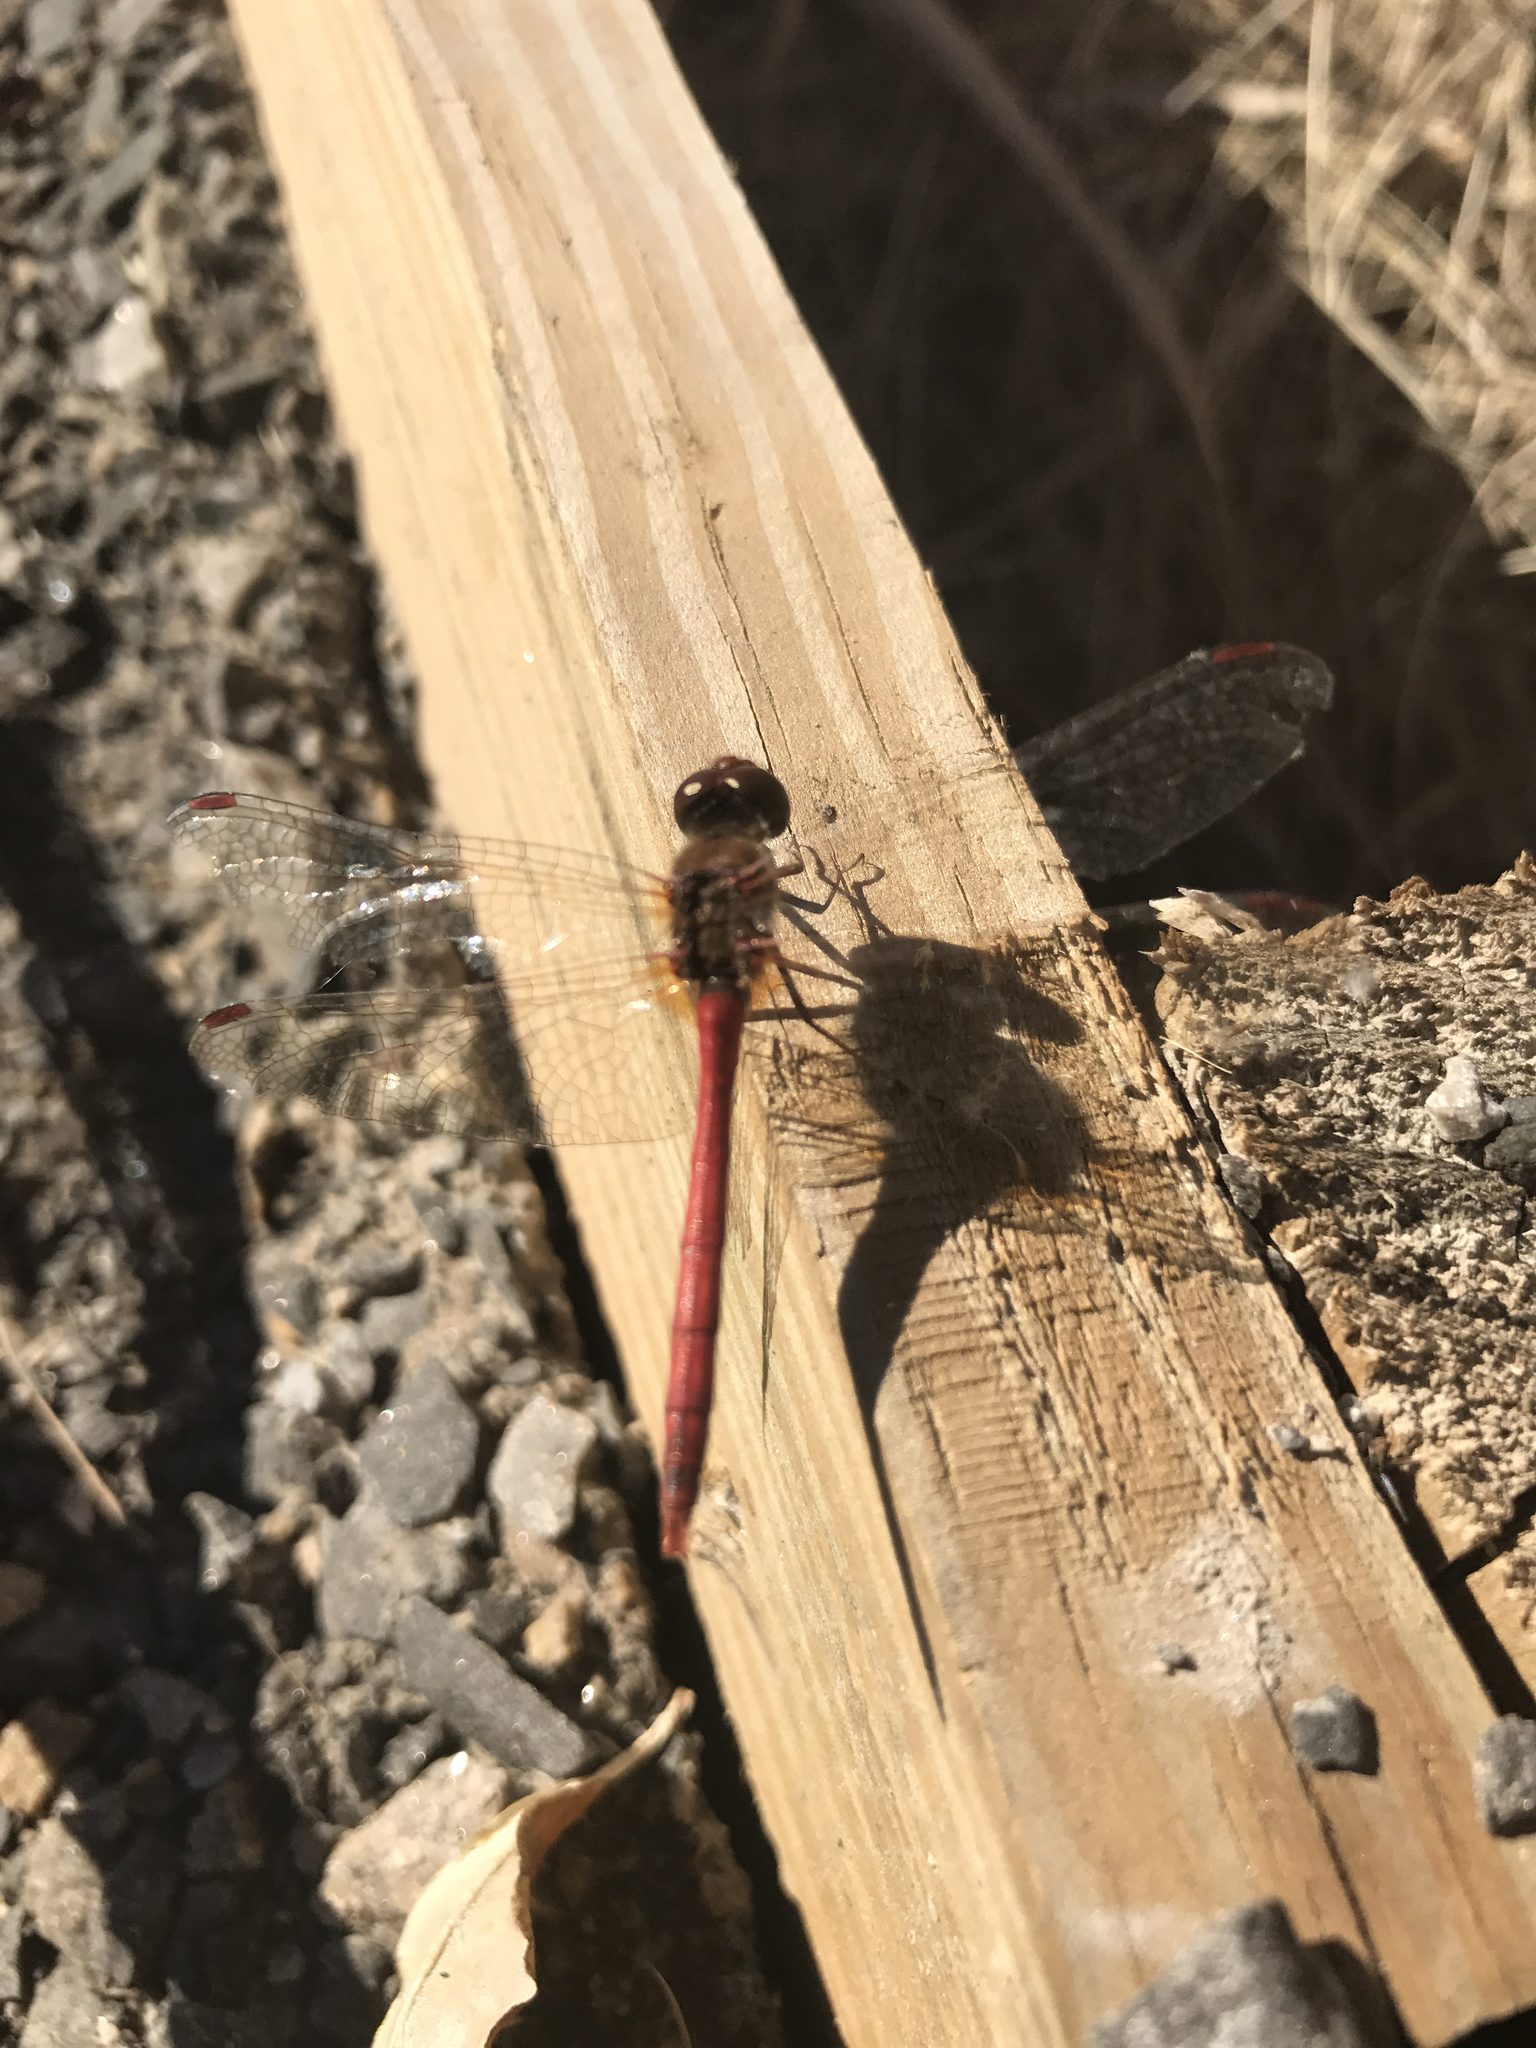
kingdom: Animalia
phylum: Arthropoda
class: Insecta
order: Odonata
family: Libellulidae
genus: Sympetrum
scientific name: Sympetrum vicinum
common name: Autumn meadowhawk
